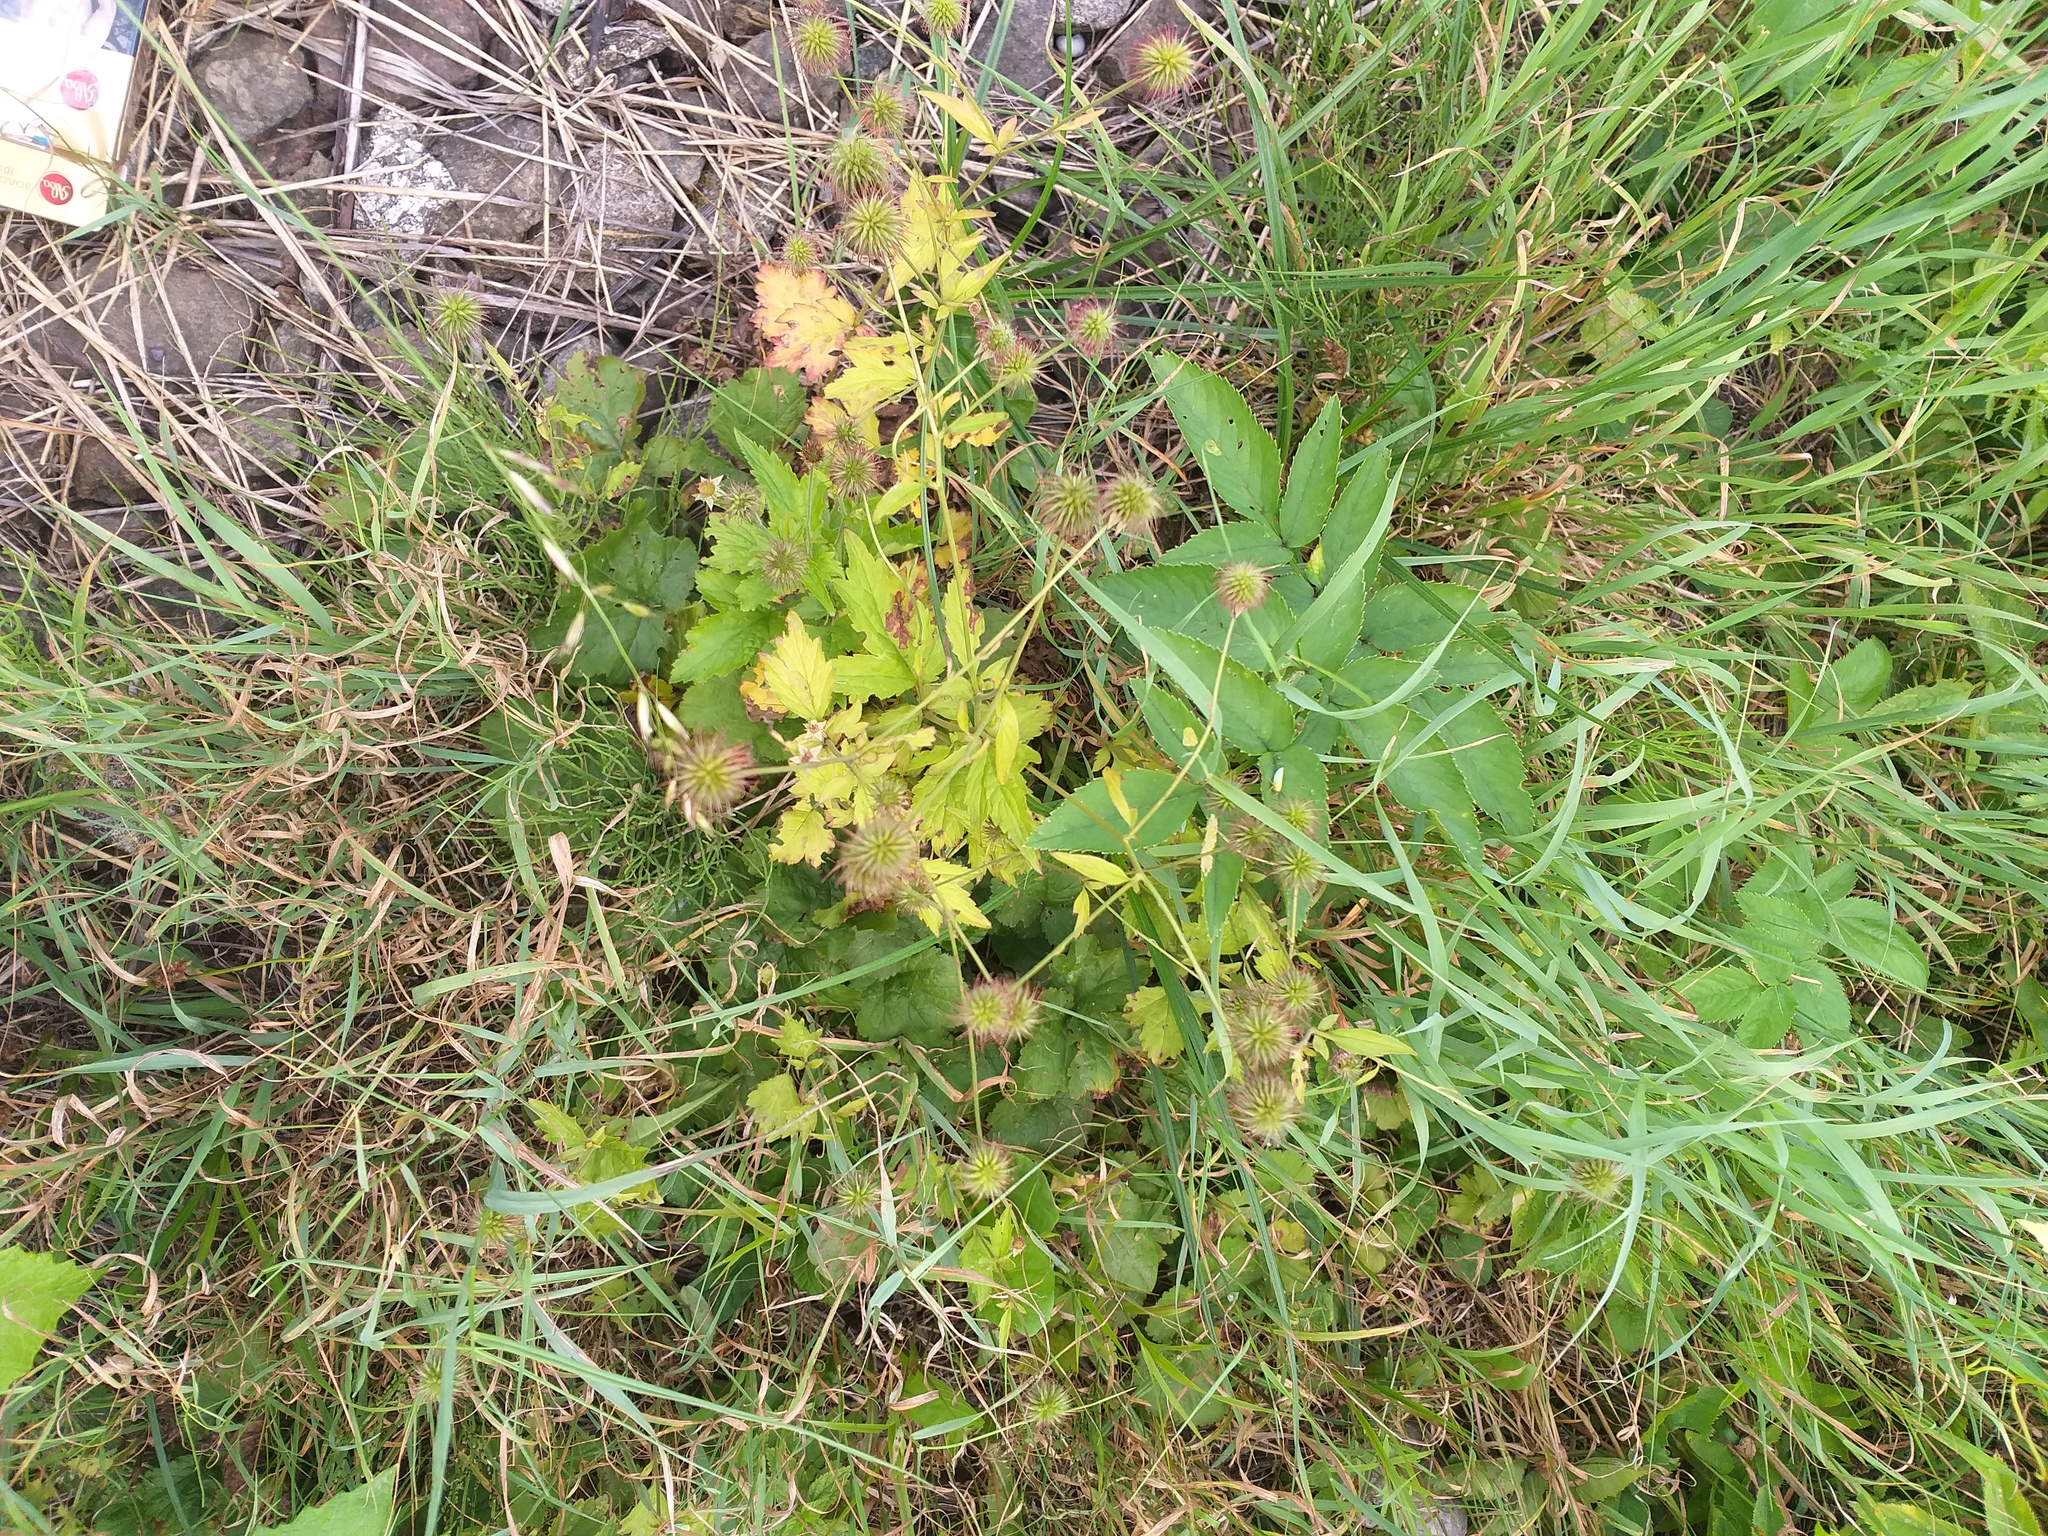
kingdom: Plantae
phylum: Tracheophyta
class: Magnoliopsida
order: Rosales
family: Rosaceae
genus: Geum
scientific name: Geum urbanum
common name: Wood avens
